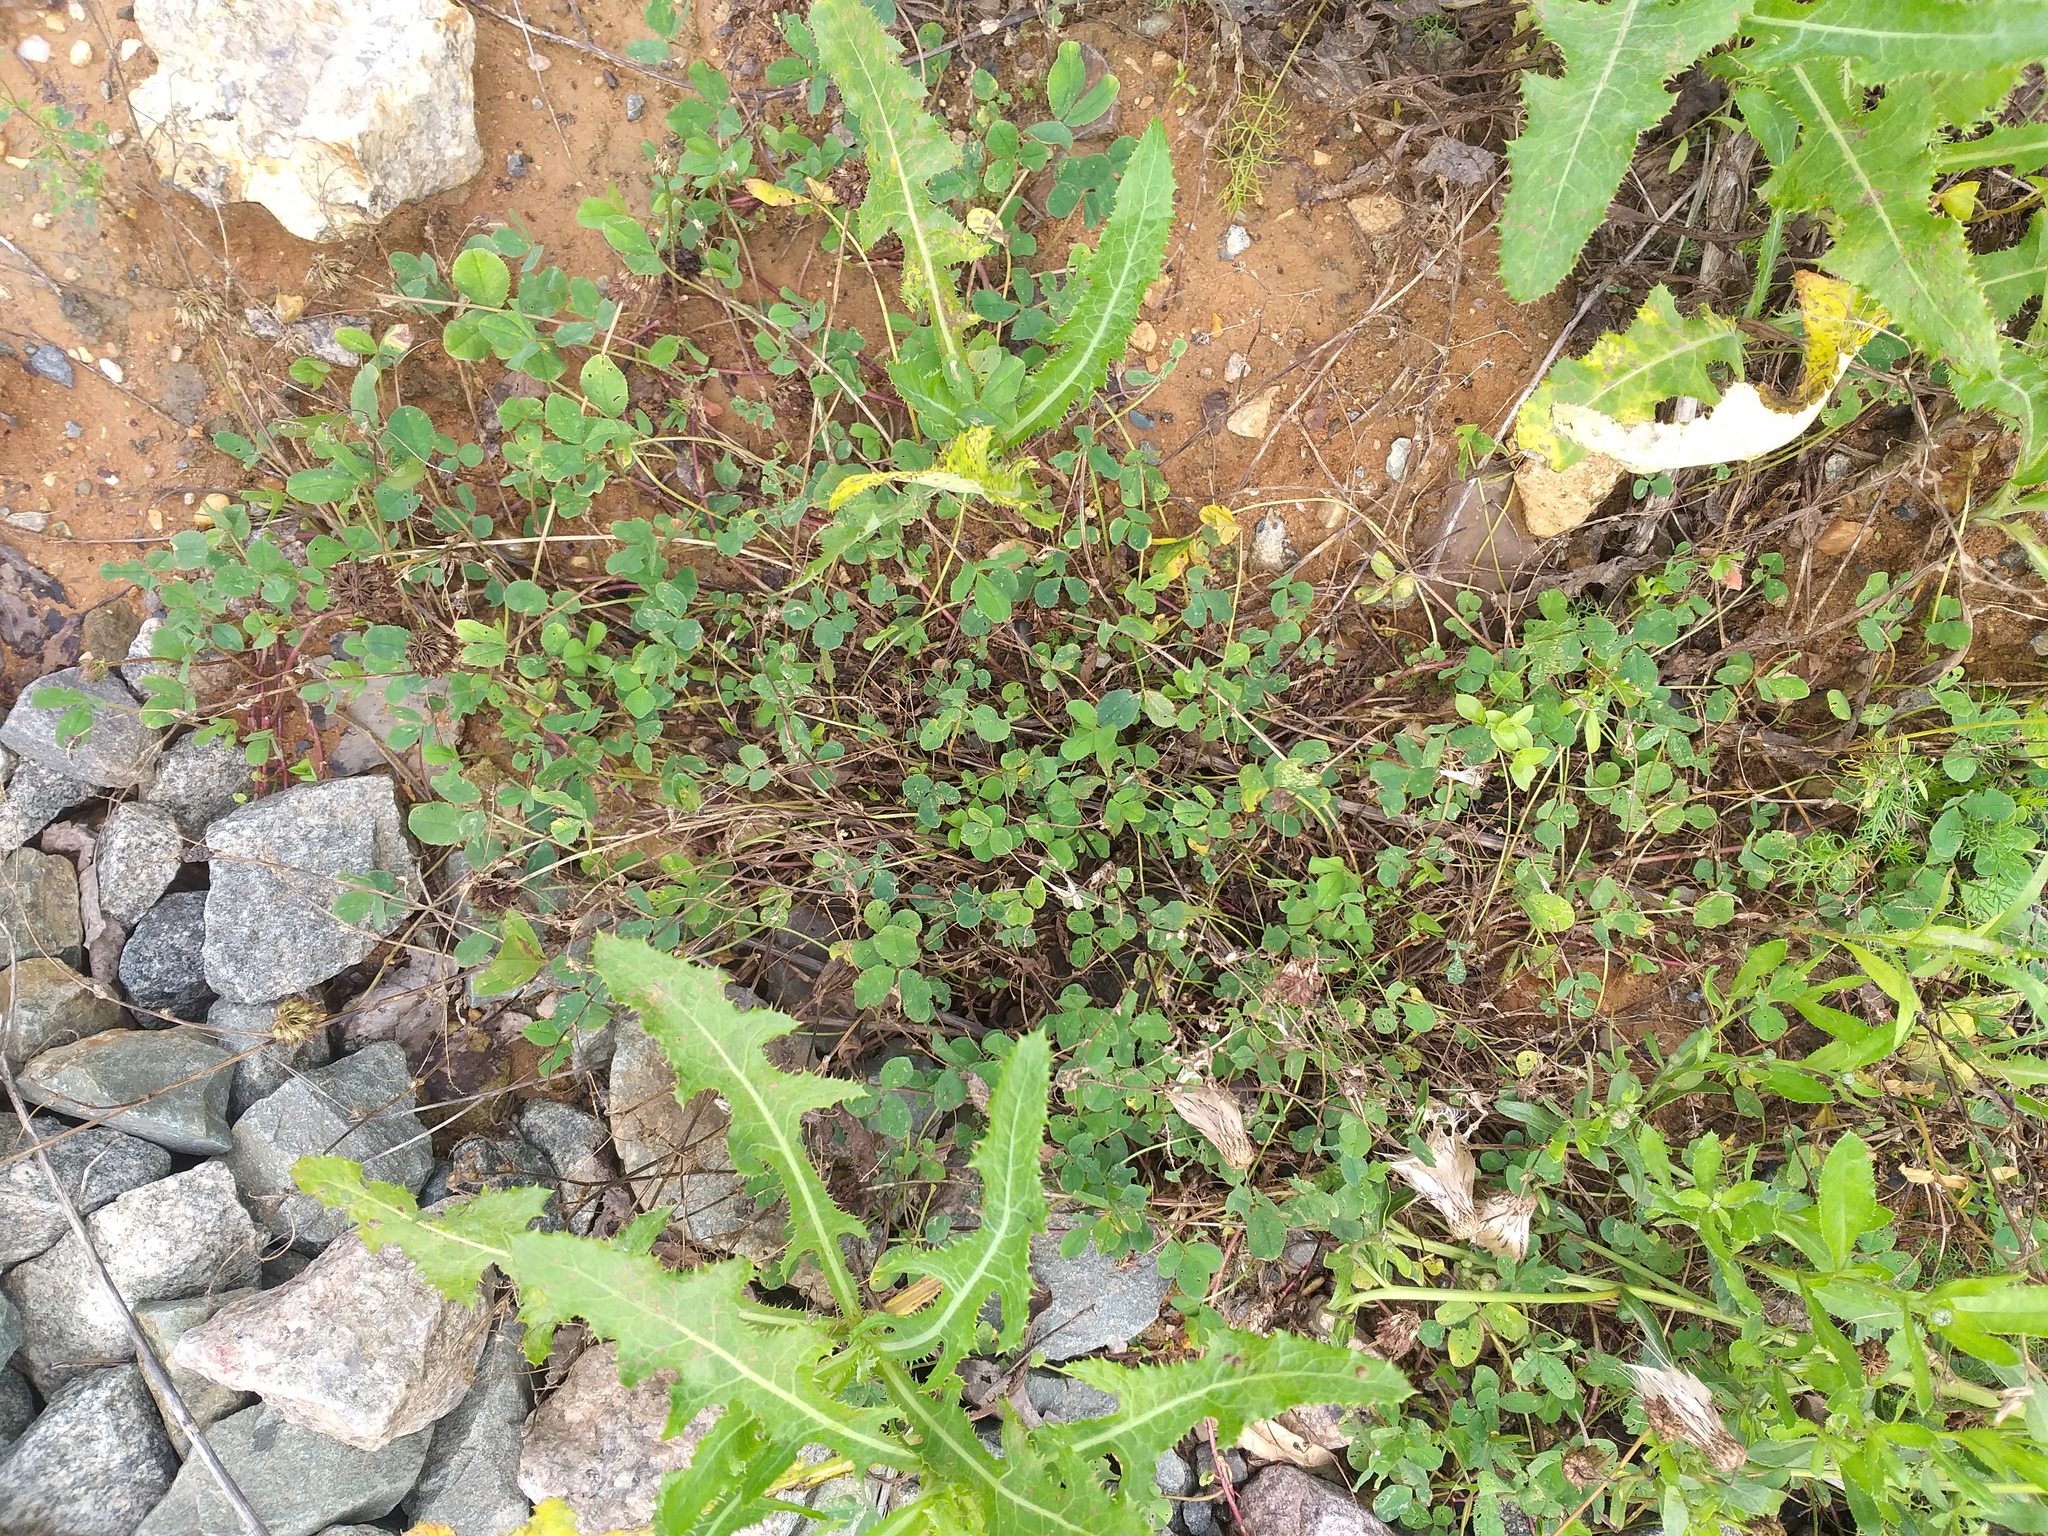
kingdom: Plantae
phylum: Tracheophyta
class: Magnoliopsida
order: Fabales
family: Fabaceae
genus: Trifolium
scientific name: Trifolium repens
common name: White clover
